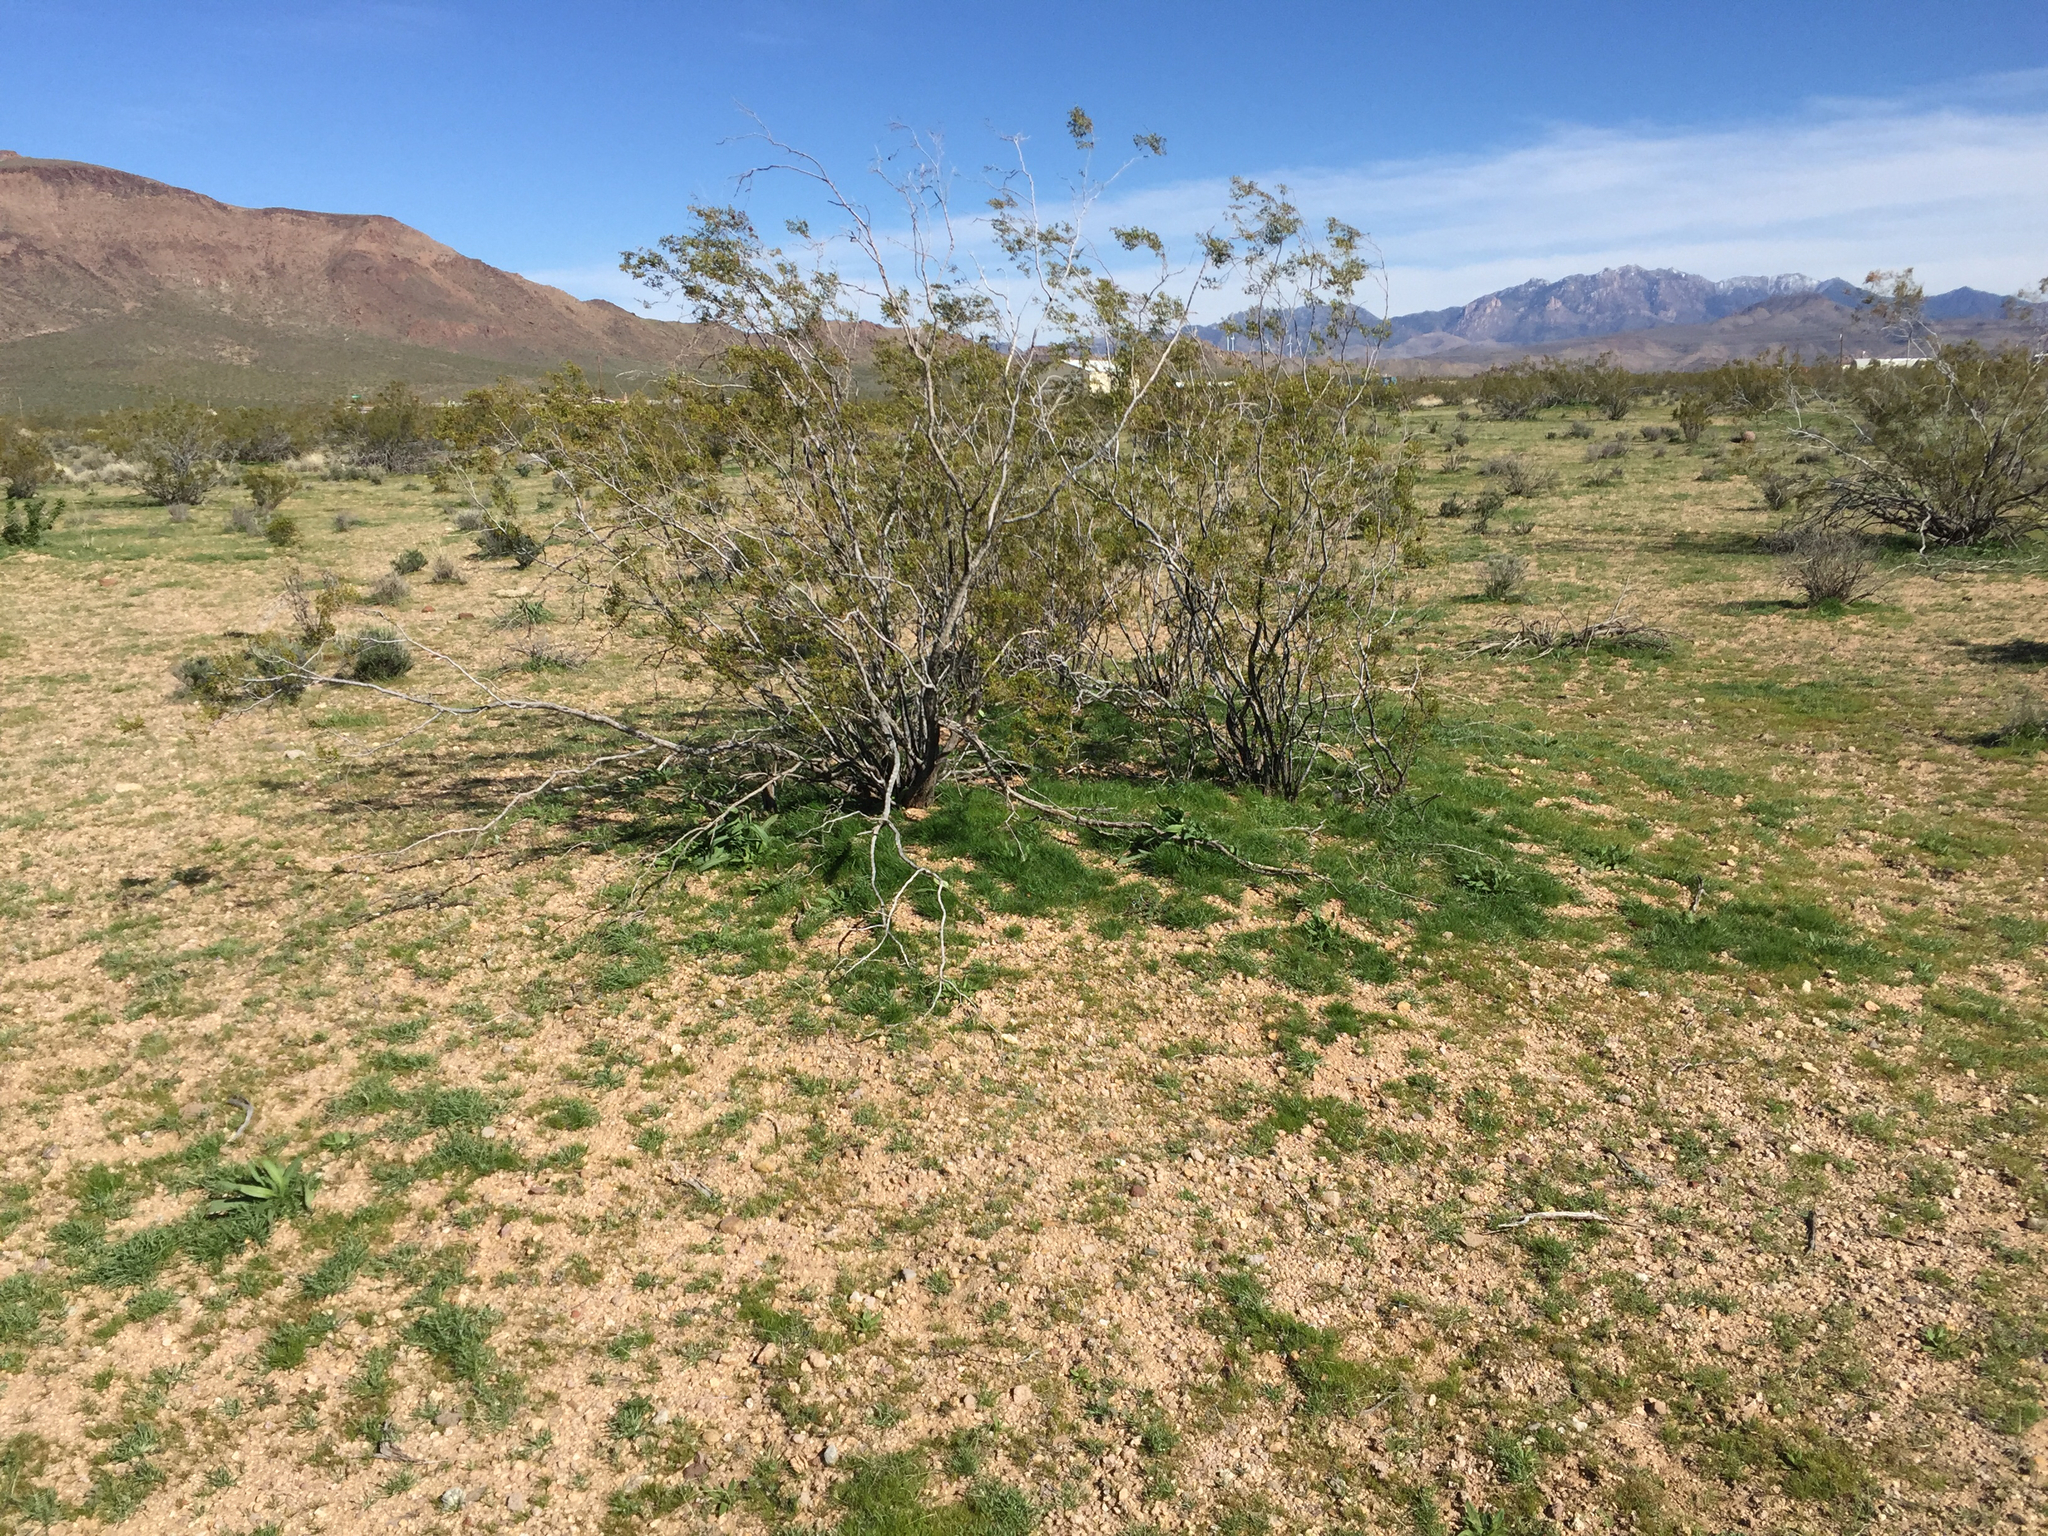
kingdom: Plantae
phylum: Tracheophyta
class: Magnoliopsida
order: Zygophyllales
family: Zygophyllaceae
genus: Larrea
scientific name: Larrea tridentata
